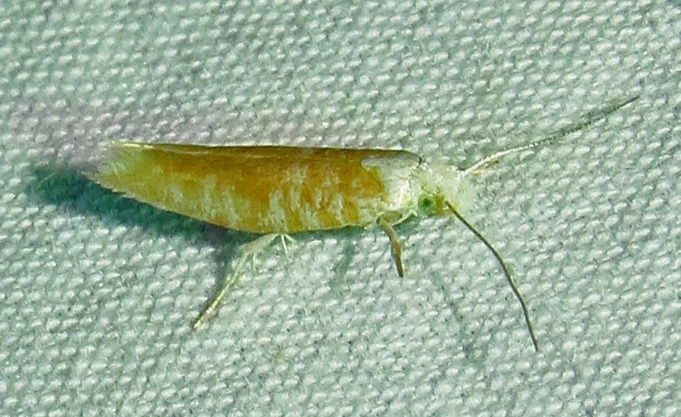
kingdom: Animalia
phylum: Arthropoda
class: Insecta
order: Lepidoptera
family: Yponomeutidae
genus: Zelleria
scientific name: Zelleria retiniella
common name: Brindled zelleria
